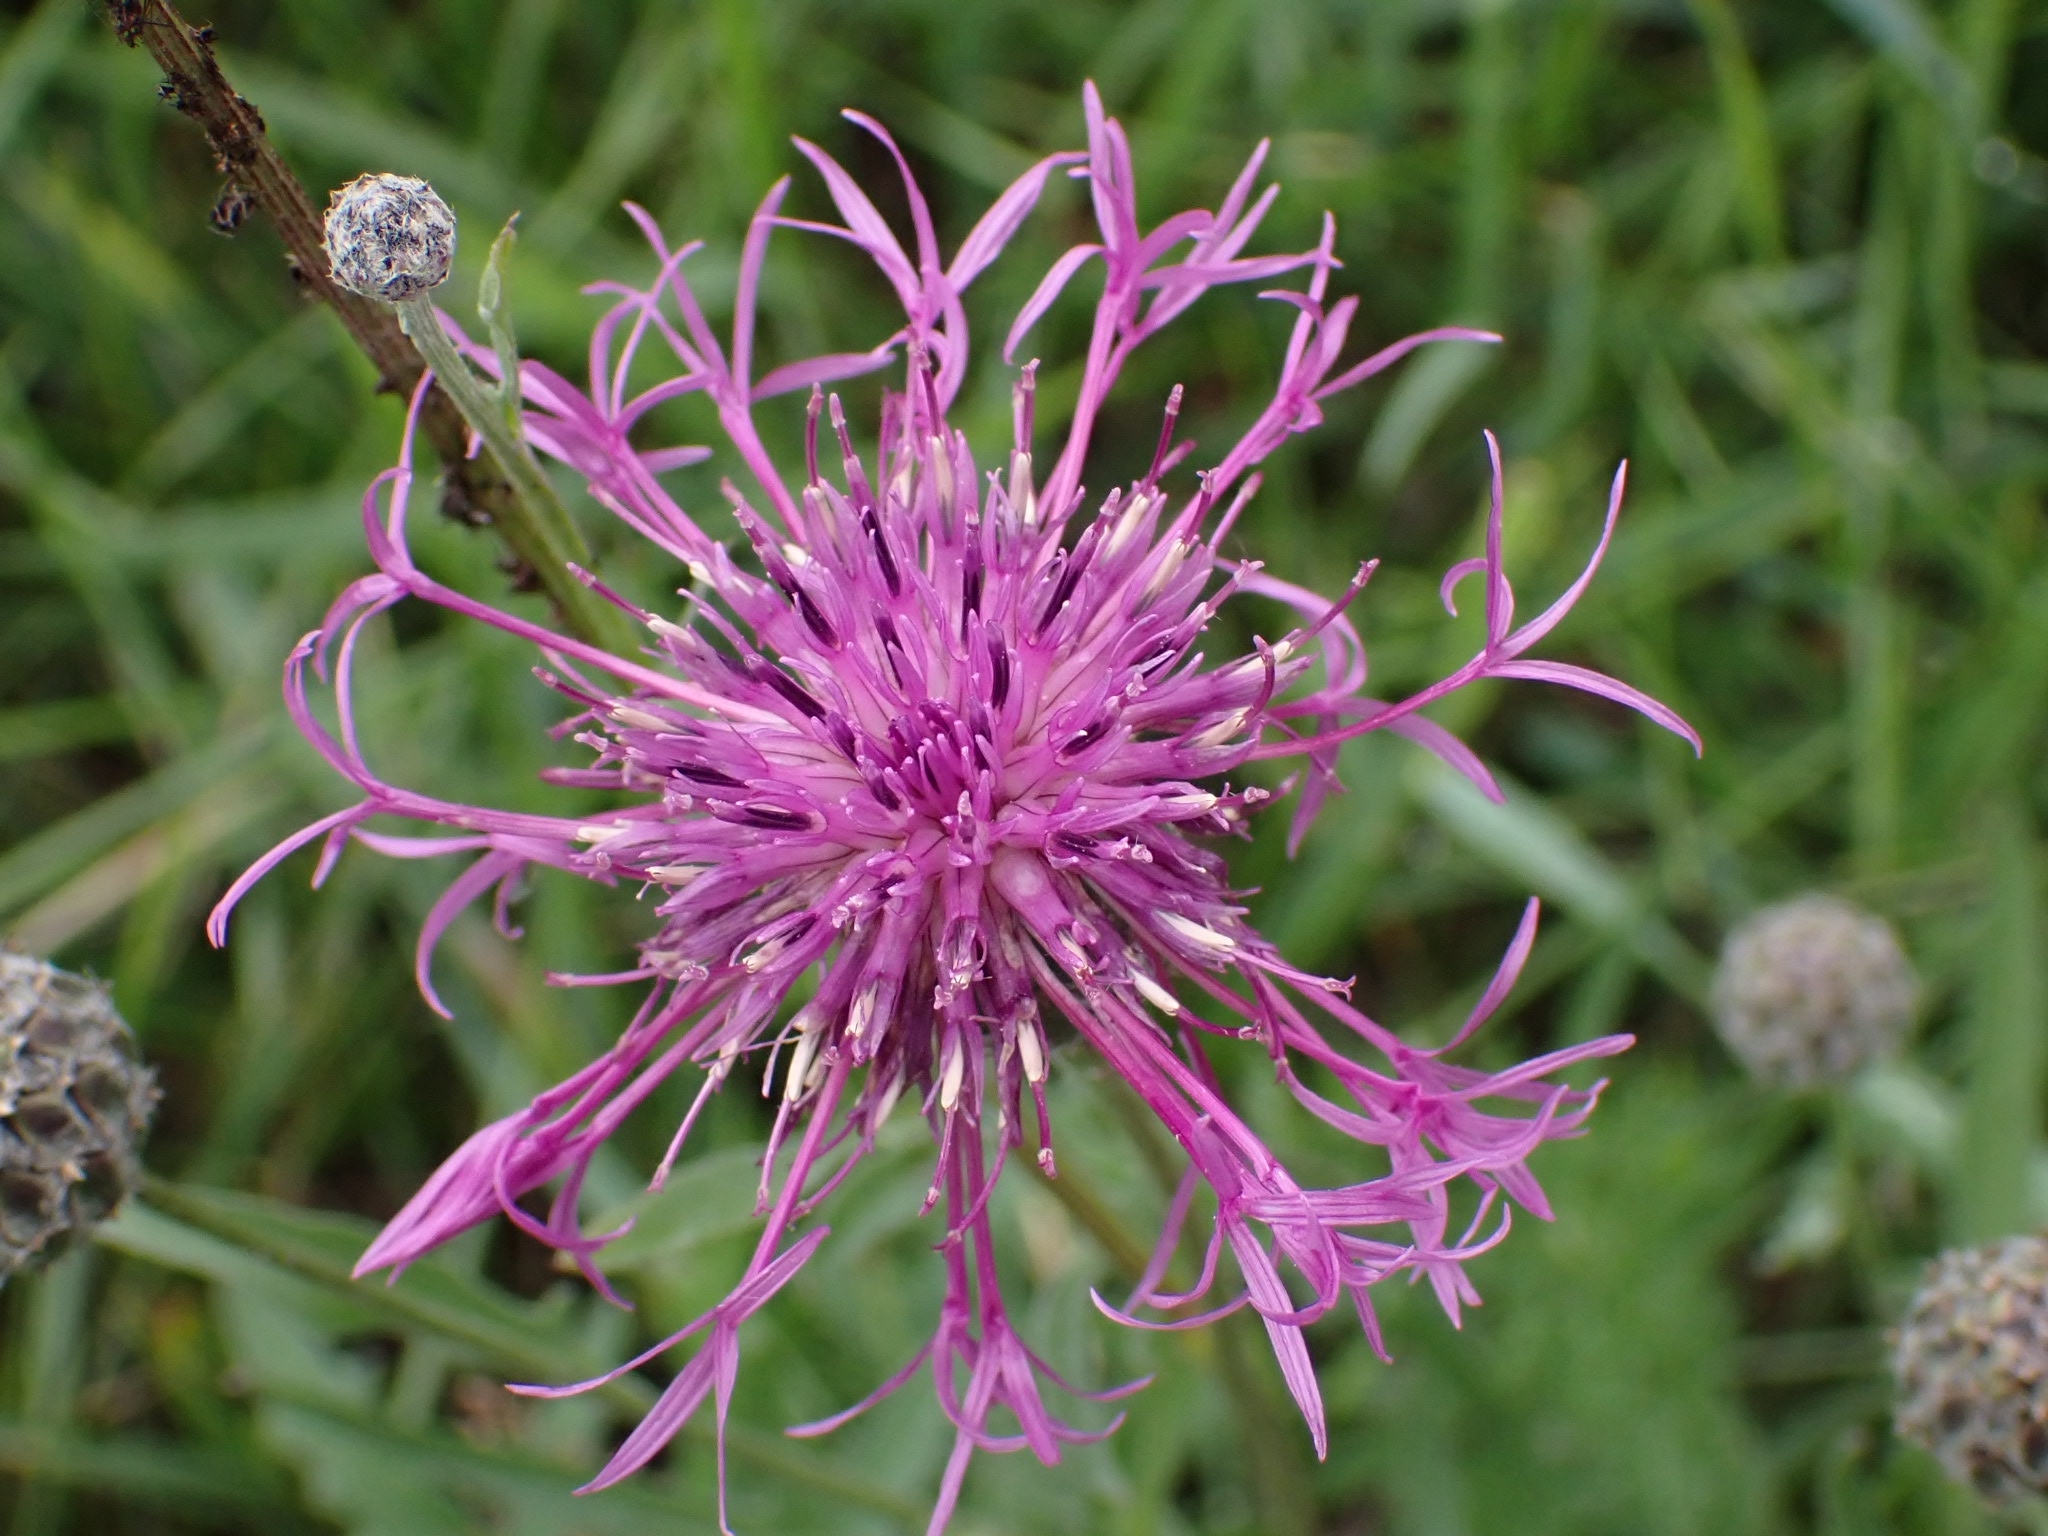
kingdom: Plantae
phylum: Tracheophyta
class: Magnoliopsida
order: Asterales
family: Asteraceae
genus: Centaurea
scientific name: Centaurea scabiosa
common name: Greater knapweed
